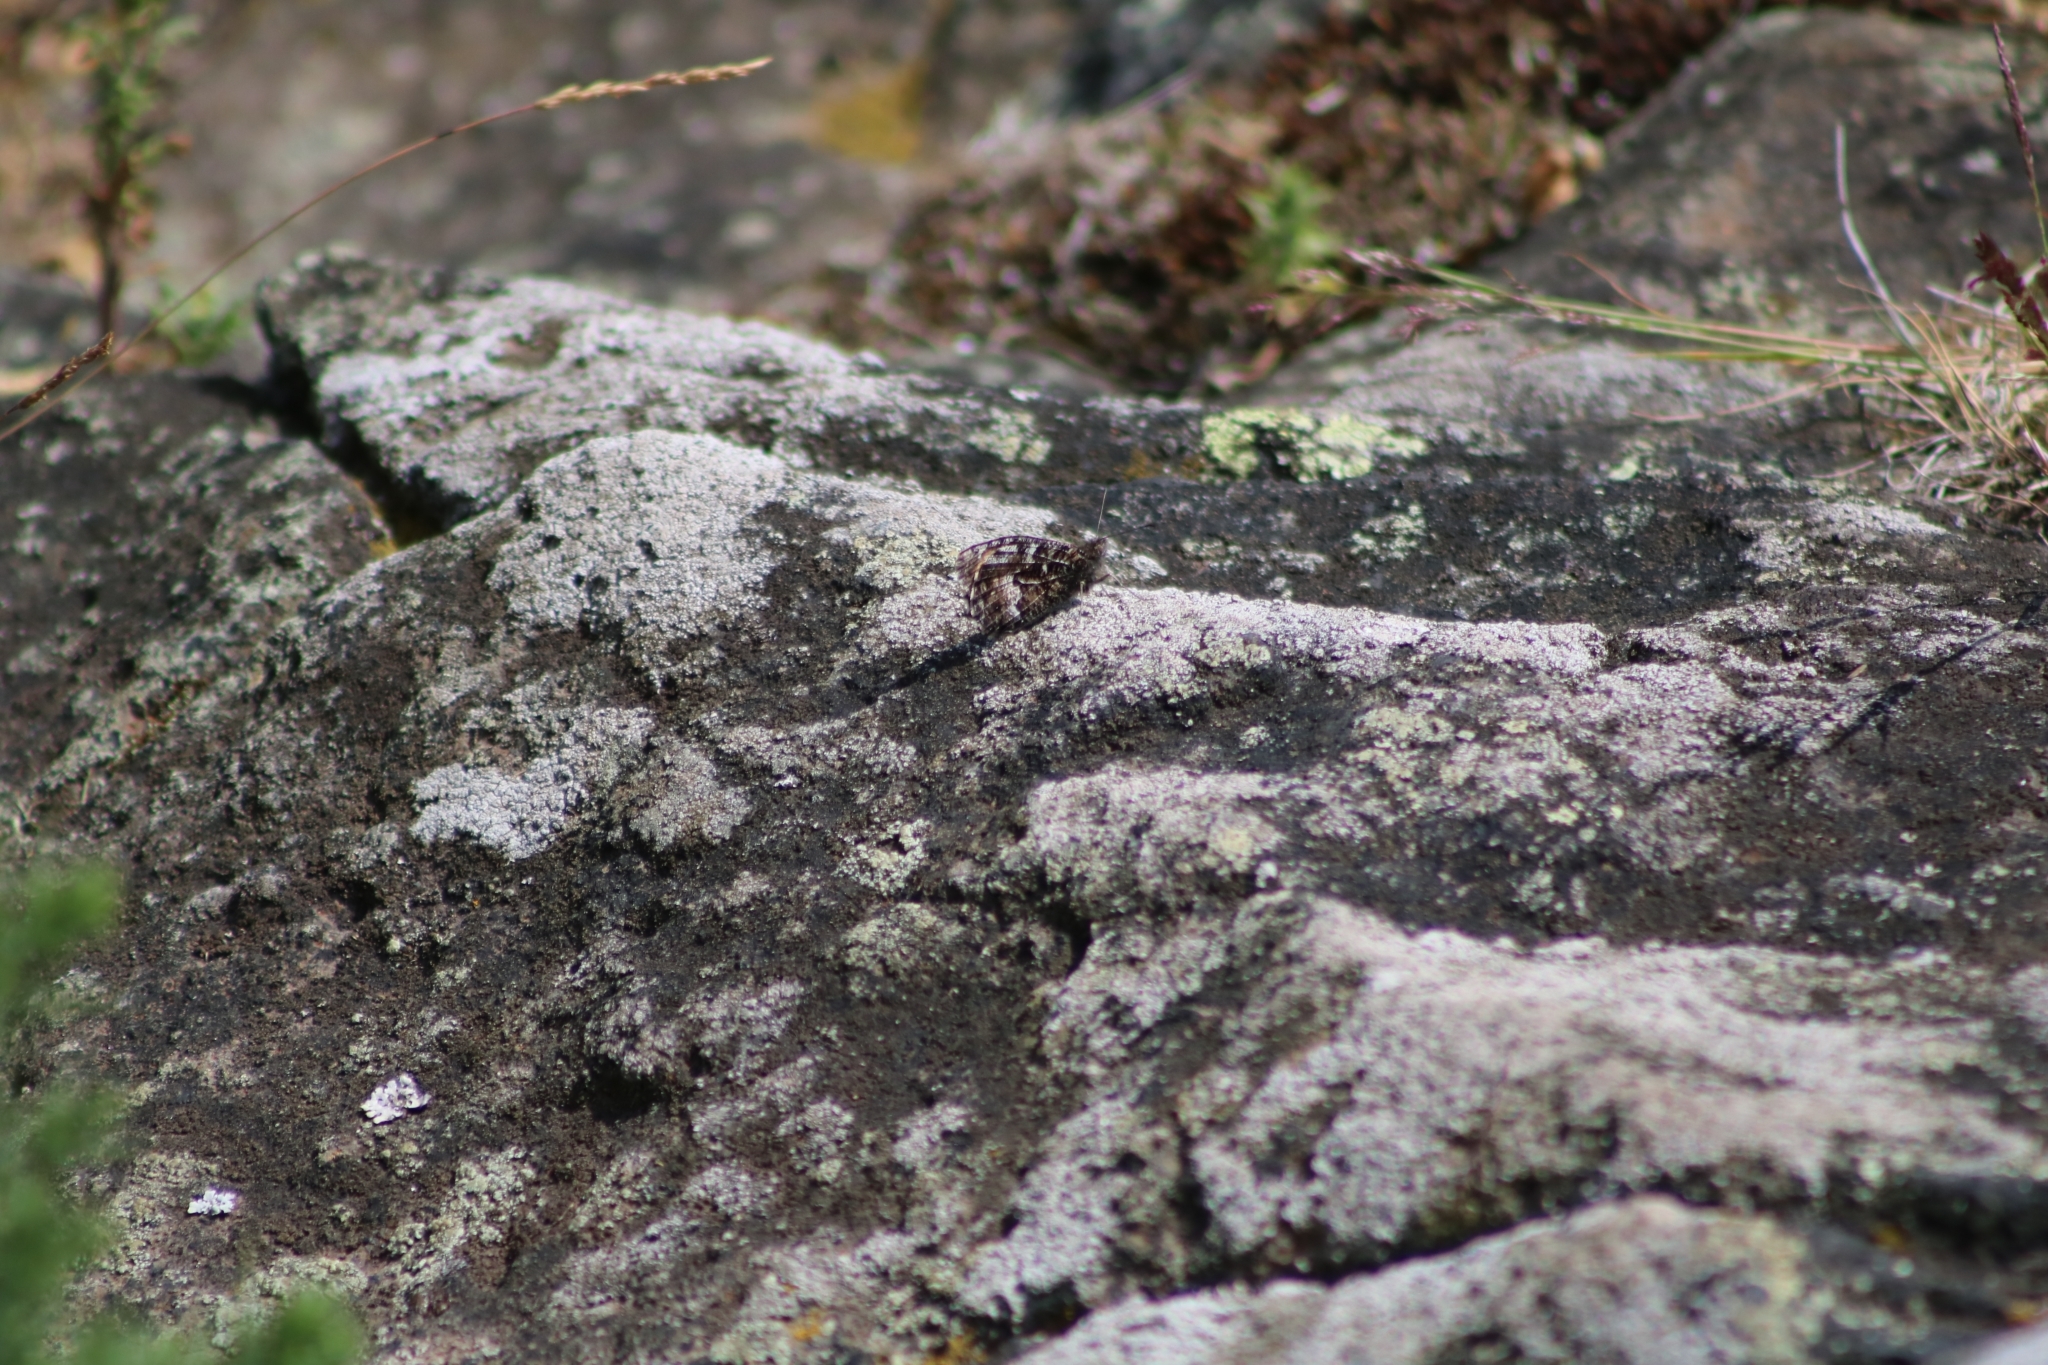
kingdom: Animalia
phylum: Arthropoda
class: Insecta
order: Lepidoptera
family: Nymphalidae
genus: Hipparchia
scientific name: Hipparchia semele
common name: Grayling
